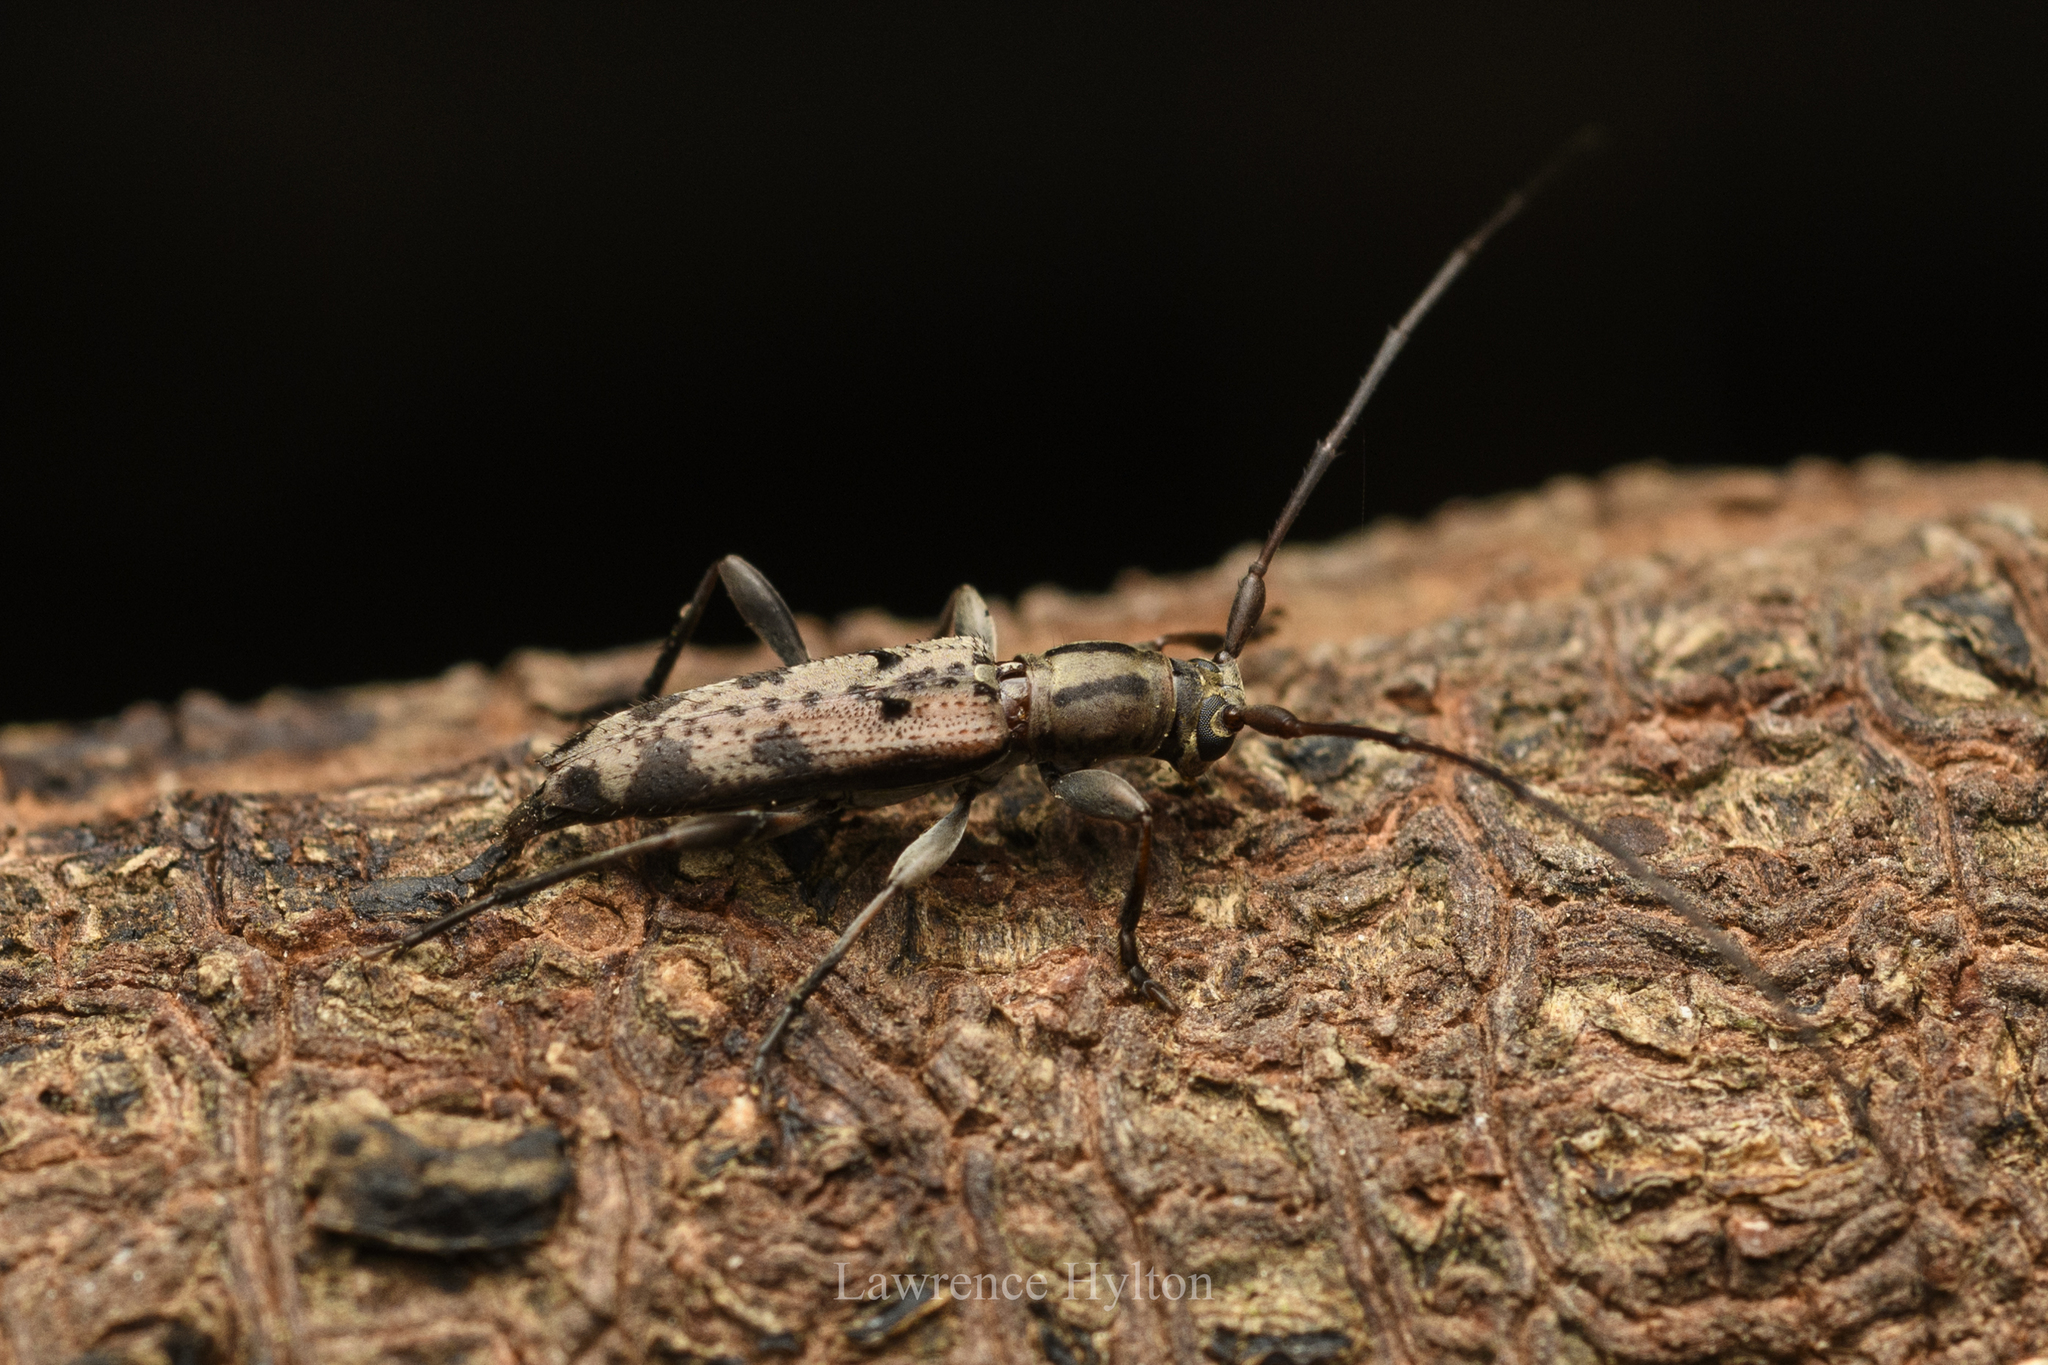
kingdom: Animalia
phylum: Arthropoda
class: Insecta
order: Coleoptera
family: Cerambycidae
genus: Rondibilis
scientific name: Rondibilis lineaticollis
